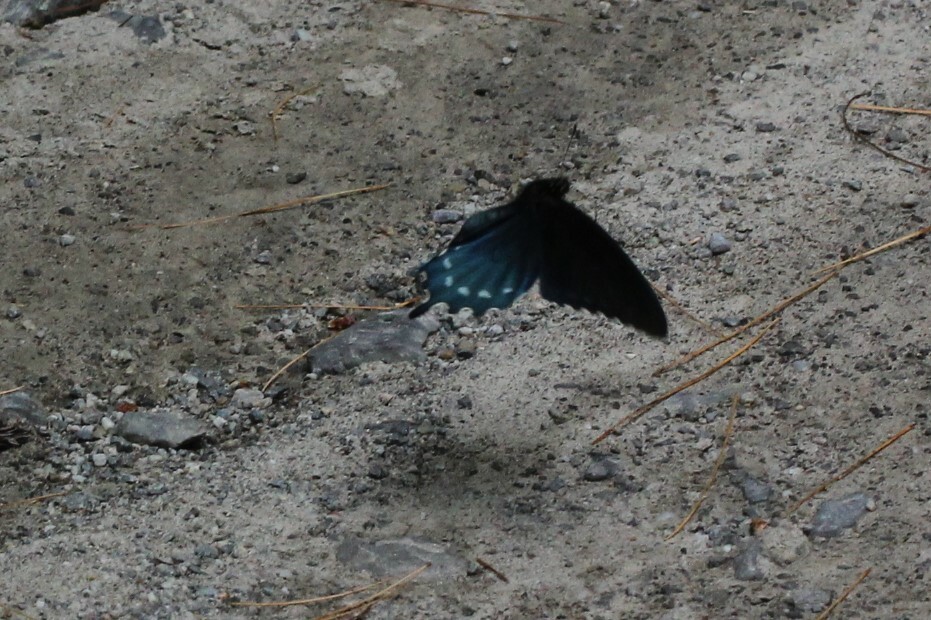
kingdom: Animalia
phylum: Arthropoda
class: Insecta
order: Lepidoptera
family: Papilionidae
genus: Battus
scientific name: Battus philenor
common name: Pipevine swallowtail
